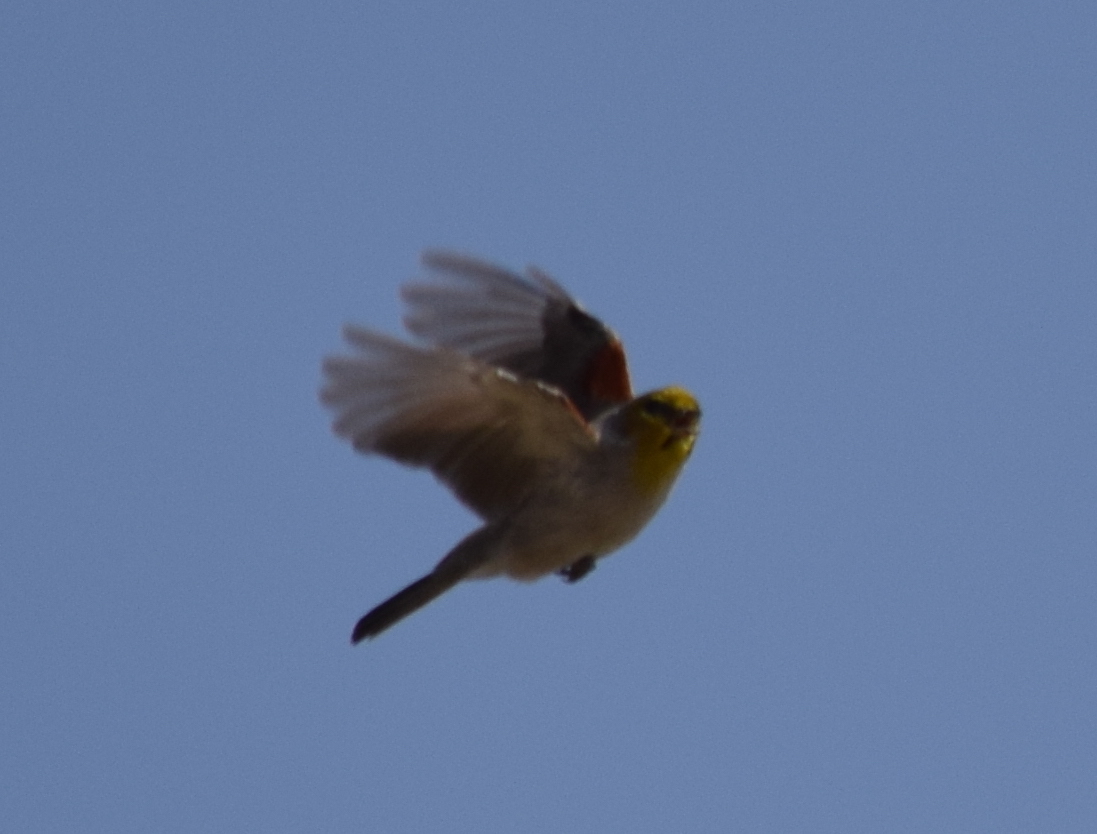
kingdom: Animalia
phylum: Chordata
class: Aves
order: Passeriformes
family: Remizidae
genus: Auriparus
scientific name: Auriparus flaviceps
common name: Verdin
